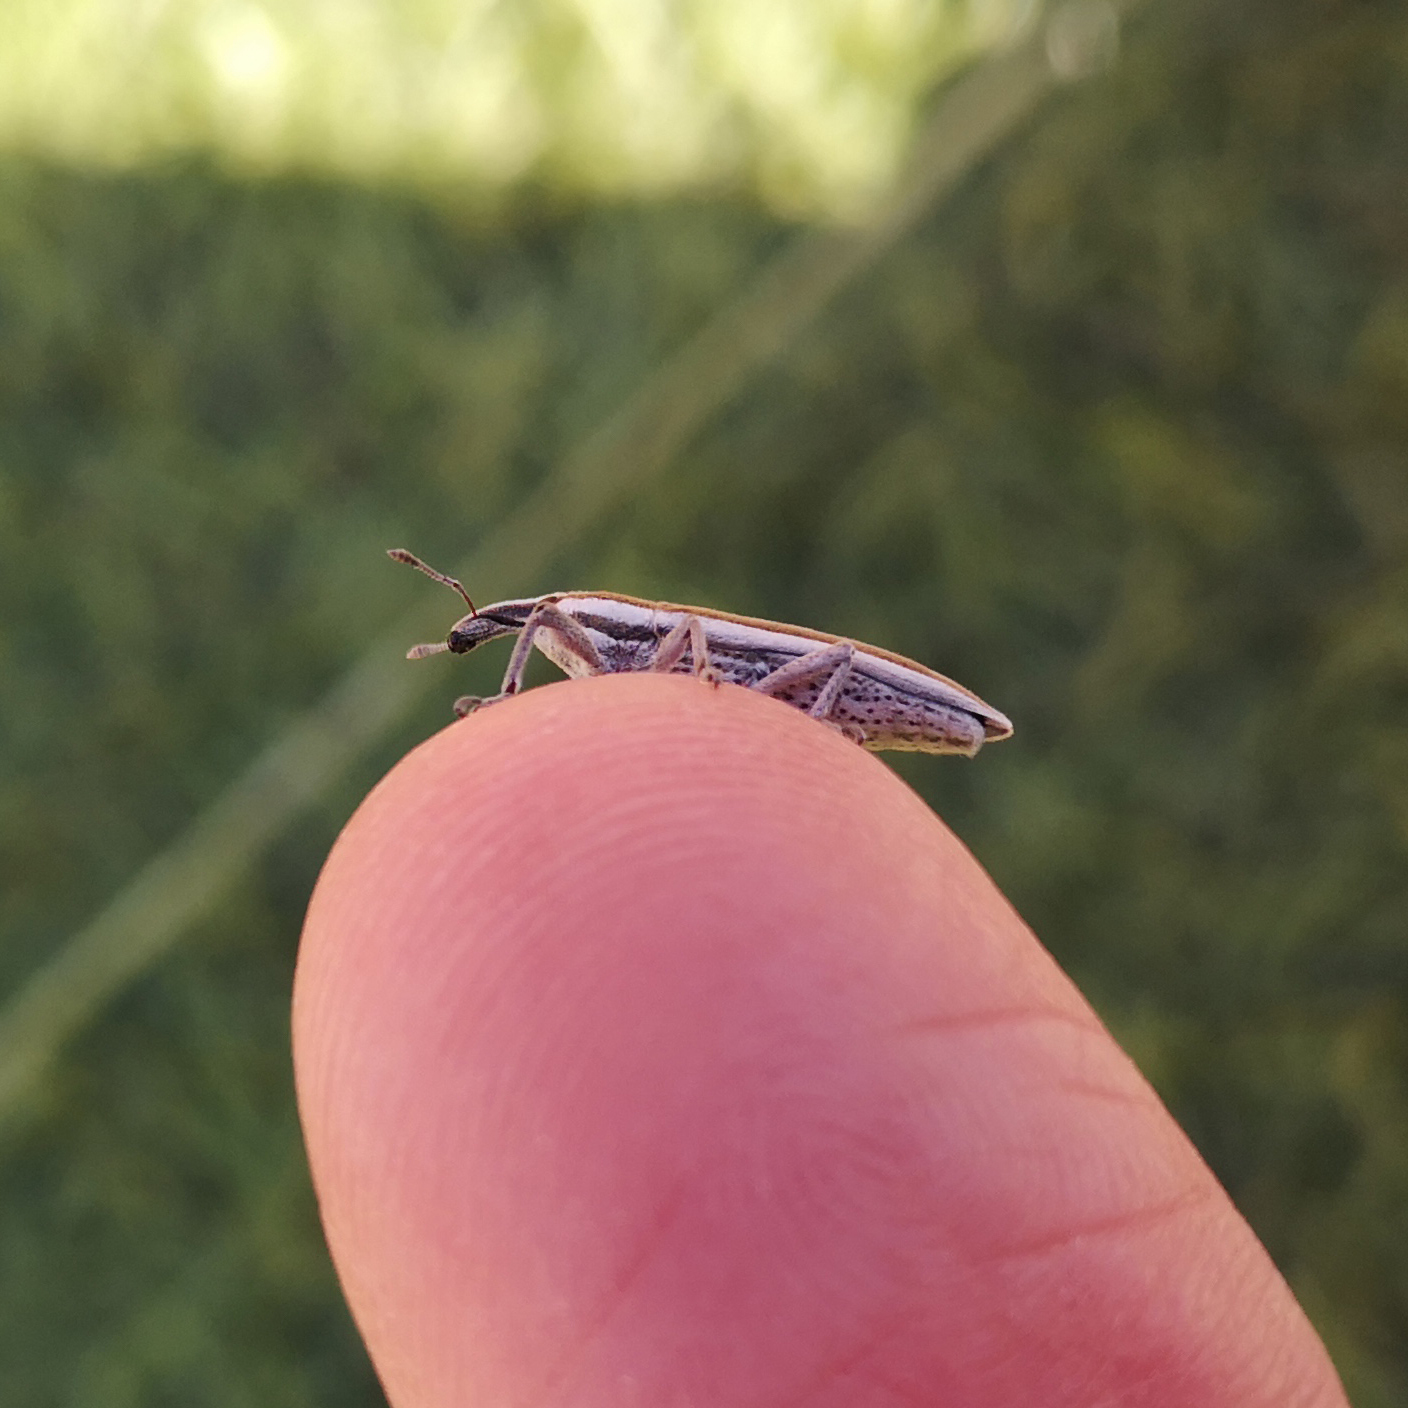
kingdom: Animalia
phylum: Arthropoda
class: Insecta
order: Coleoptera
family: Curculionidae
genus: Lixus
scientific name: Lixus anguinus
